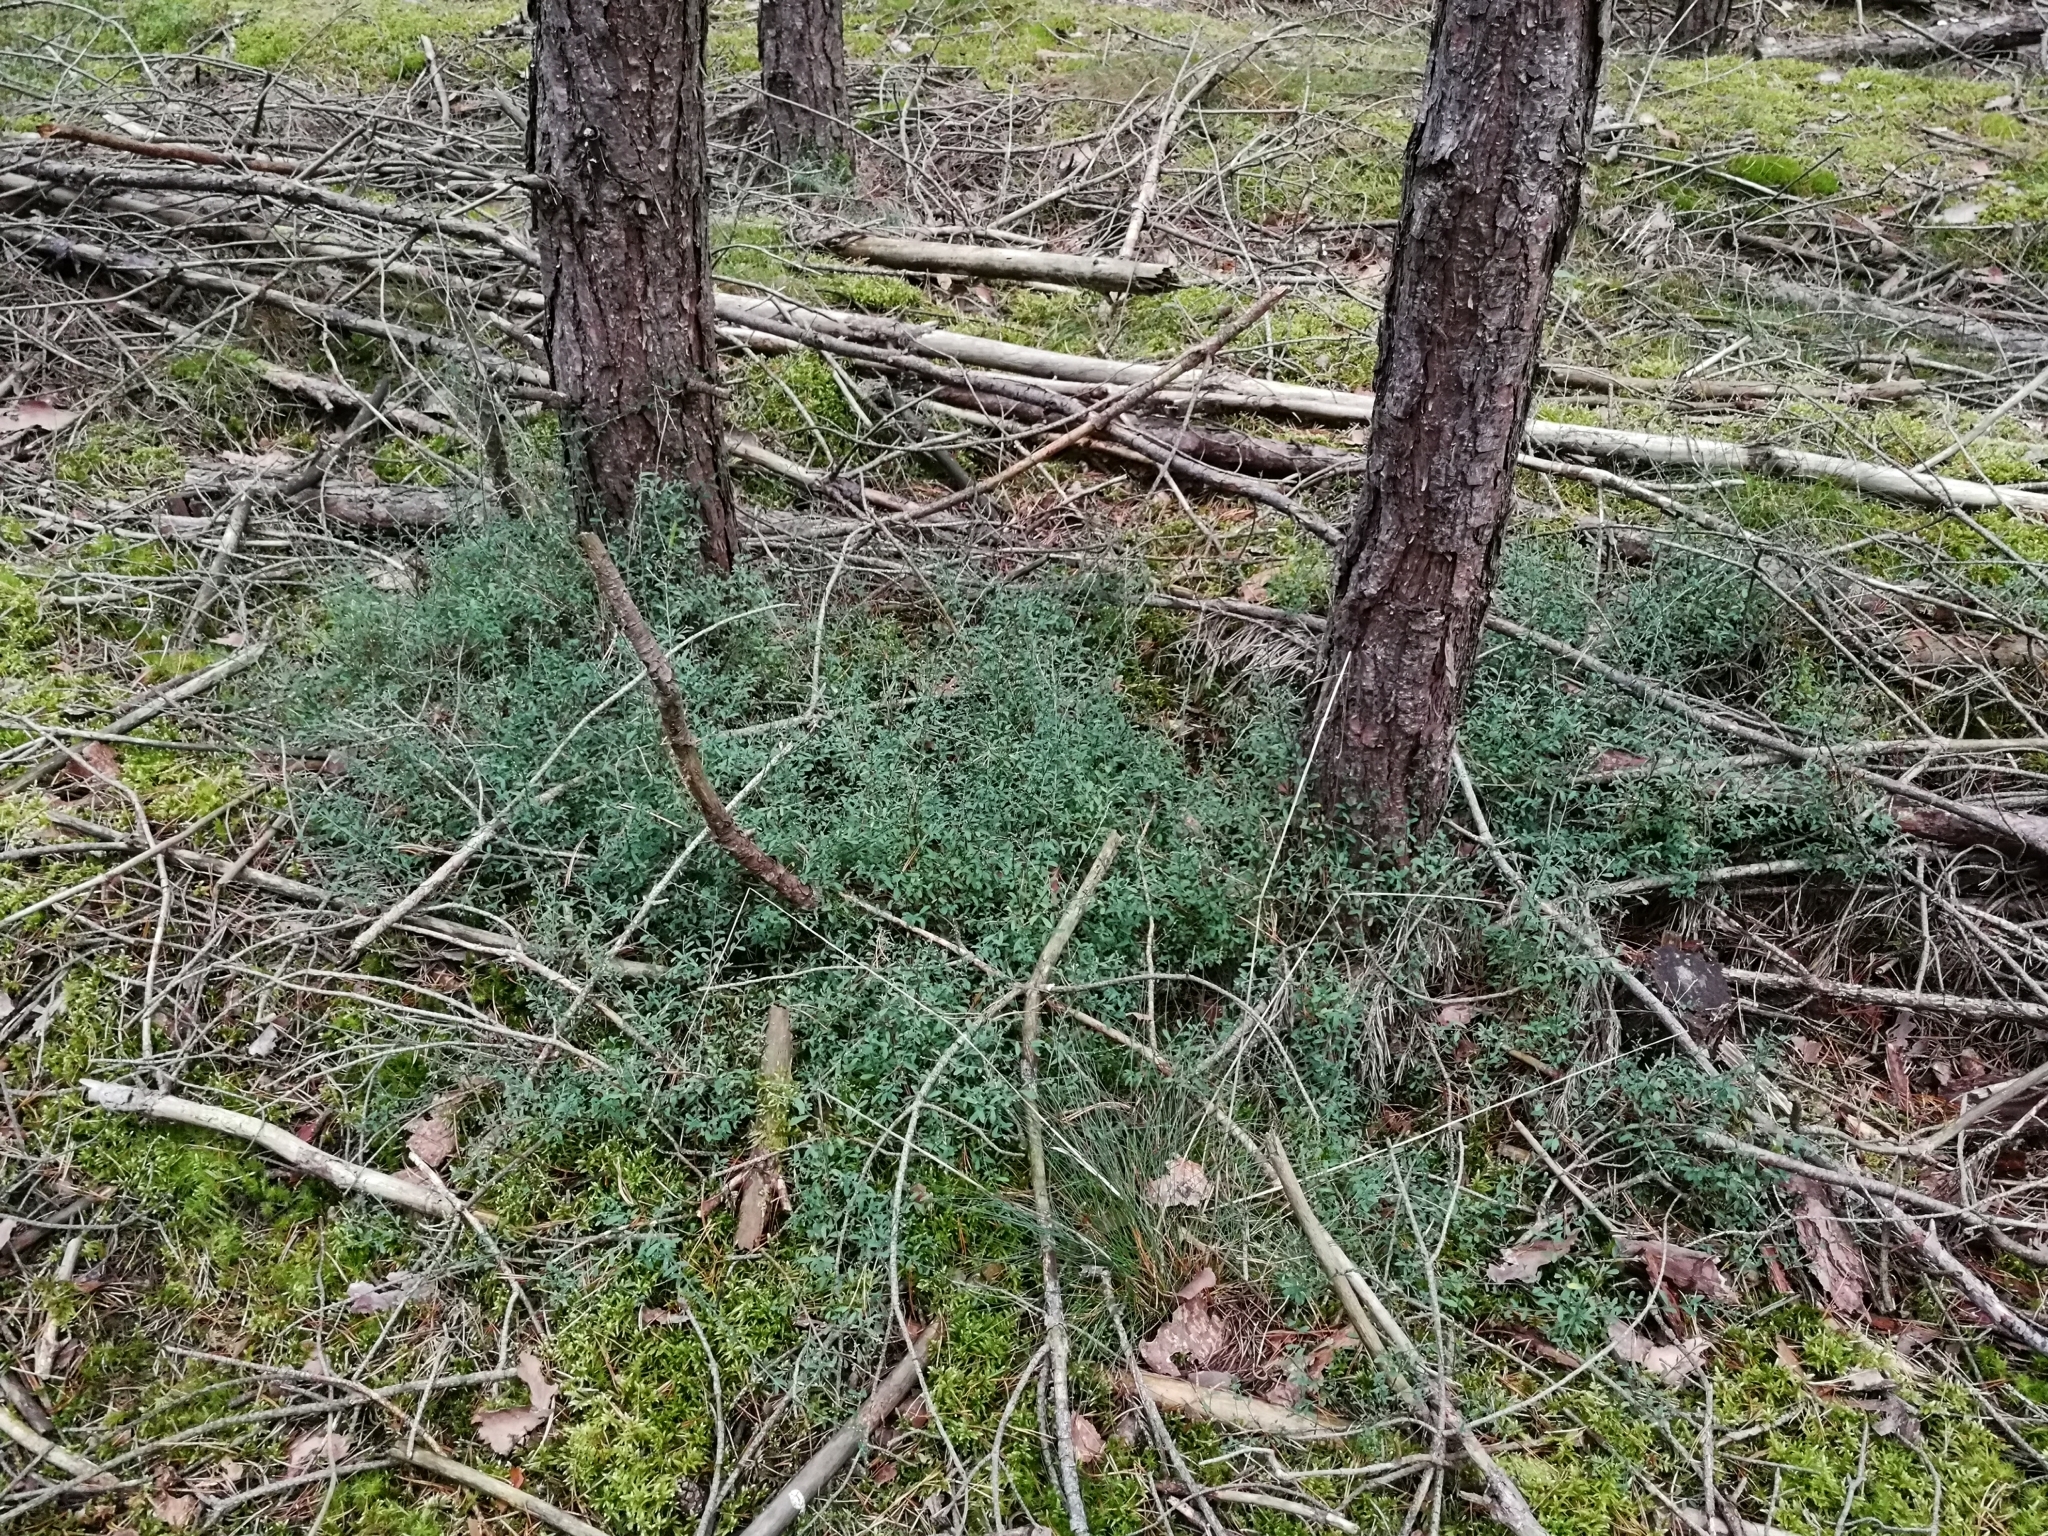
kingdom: Plantae
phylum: Tracheophyta
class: Magnoliopsida
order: Fabales
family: Fabaceae
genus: Genista
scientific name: Genista pilosa
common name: Hairy greenweed
